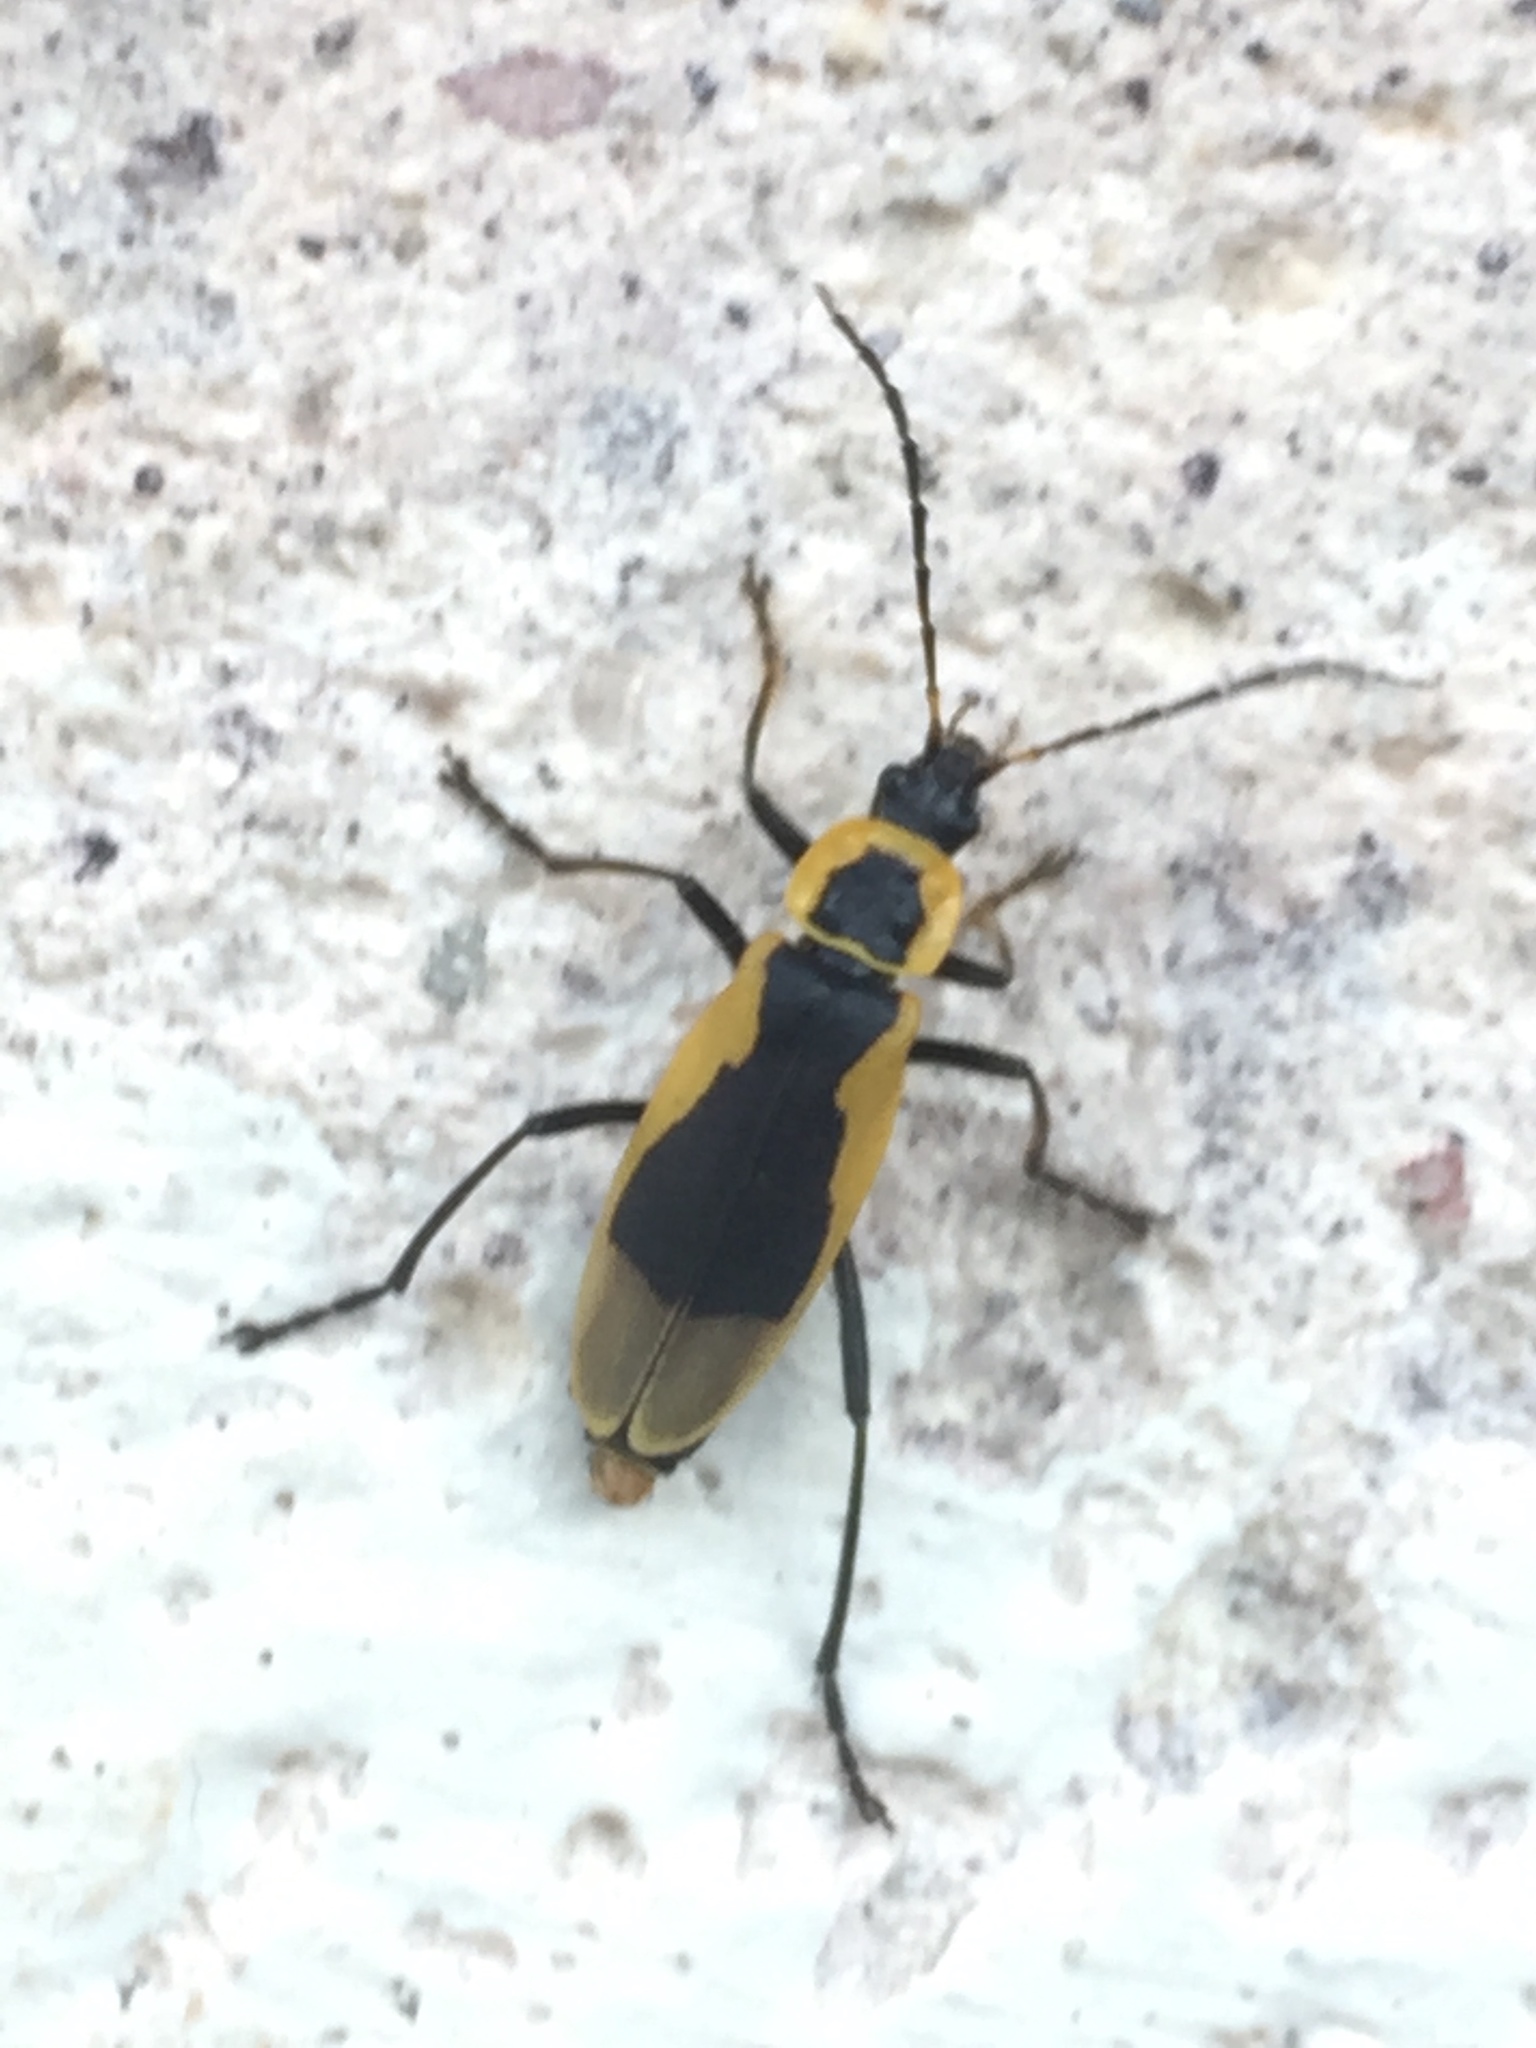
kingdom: Animalia
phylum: Arthropoda
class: Insecta
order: Coleoptera
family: Cantharidae
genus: Chauliognathus
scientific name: Chauliognathus
